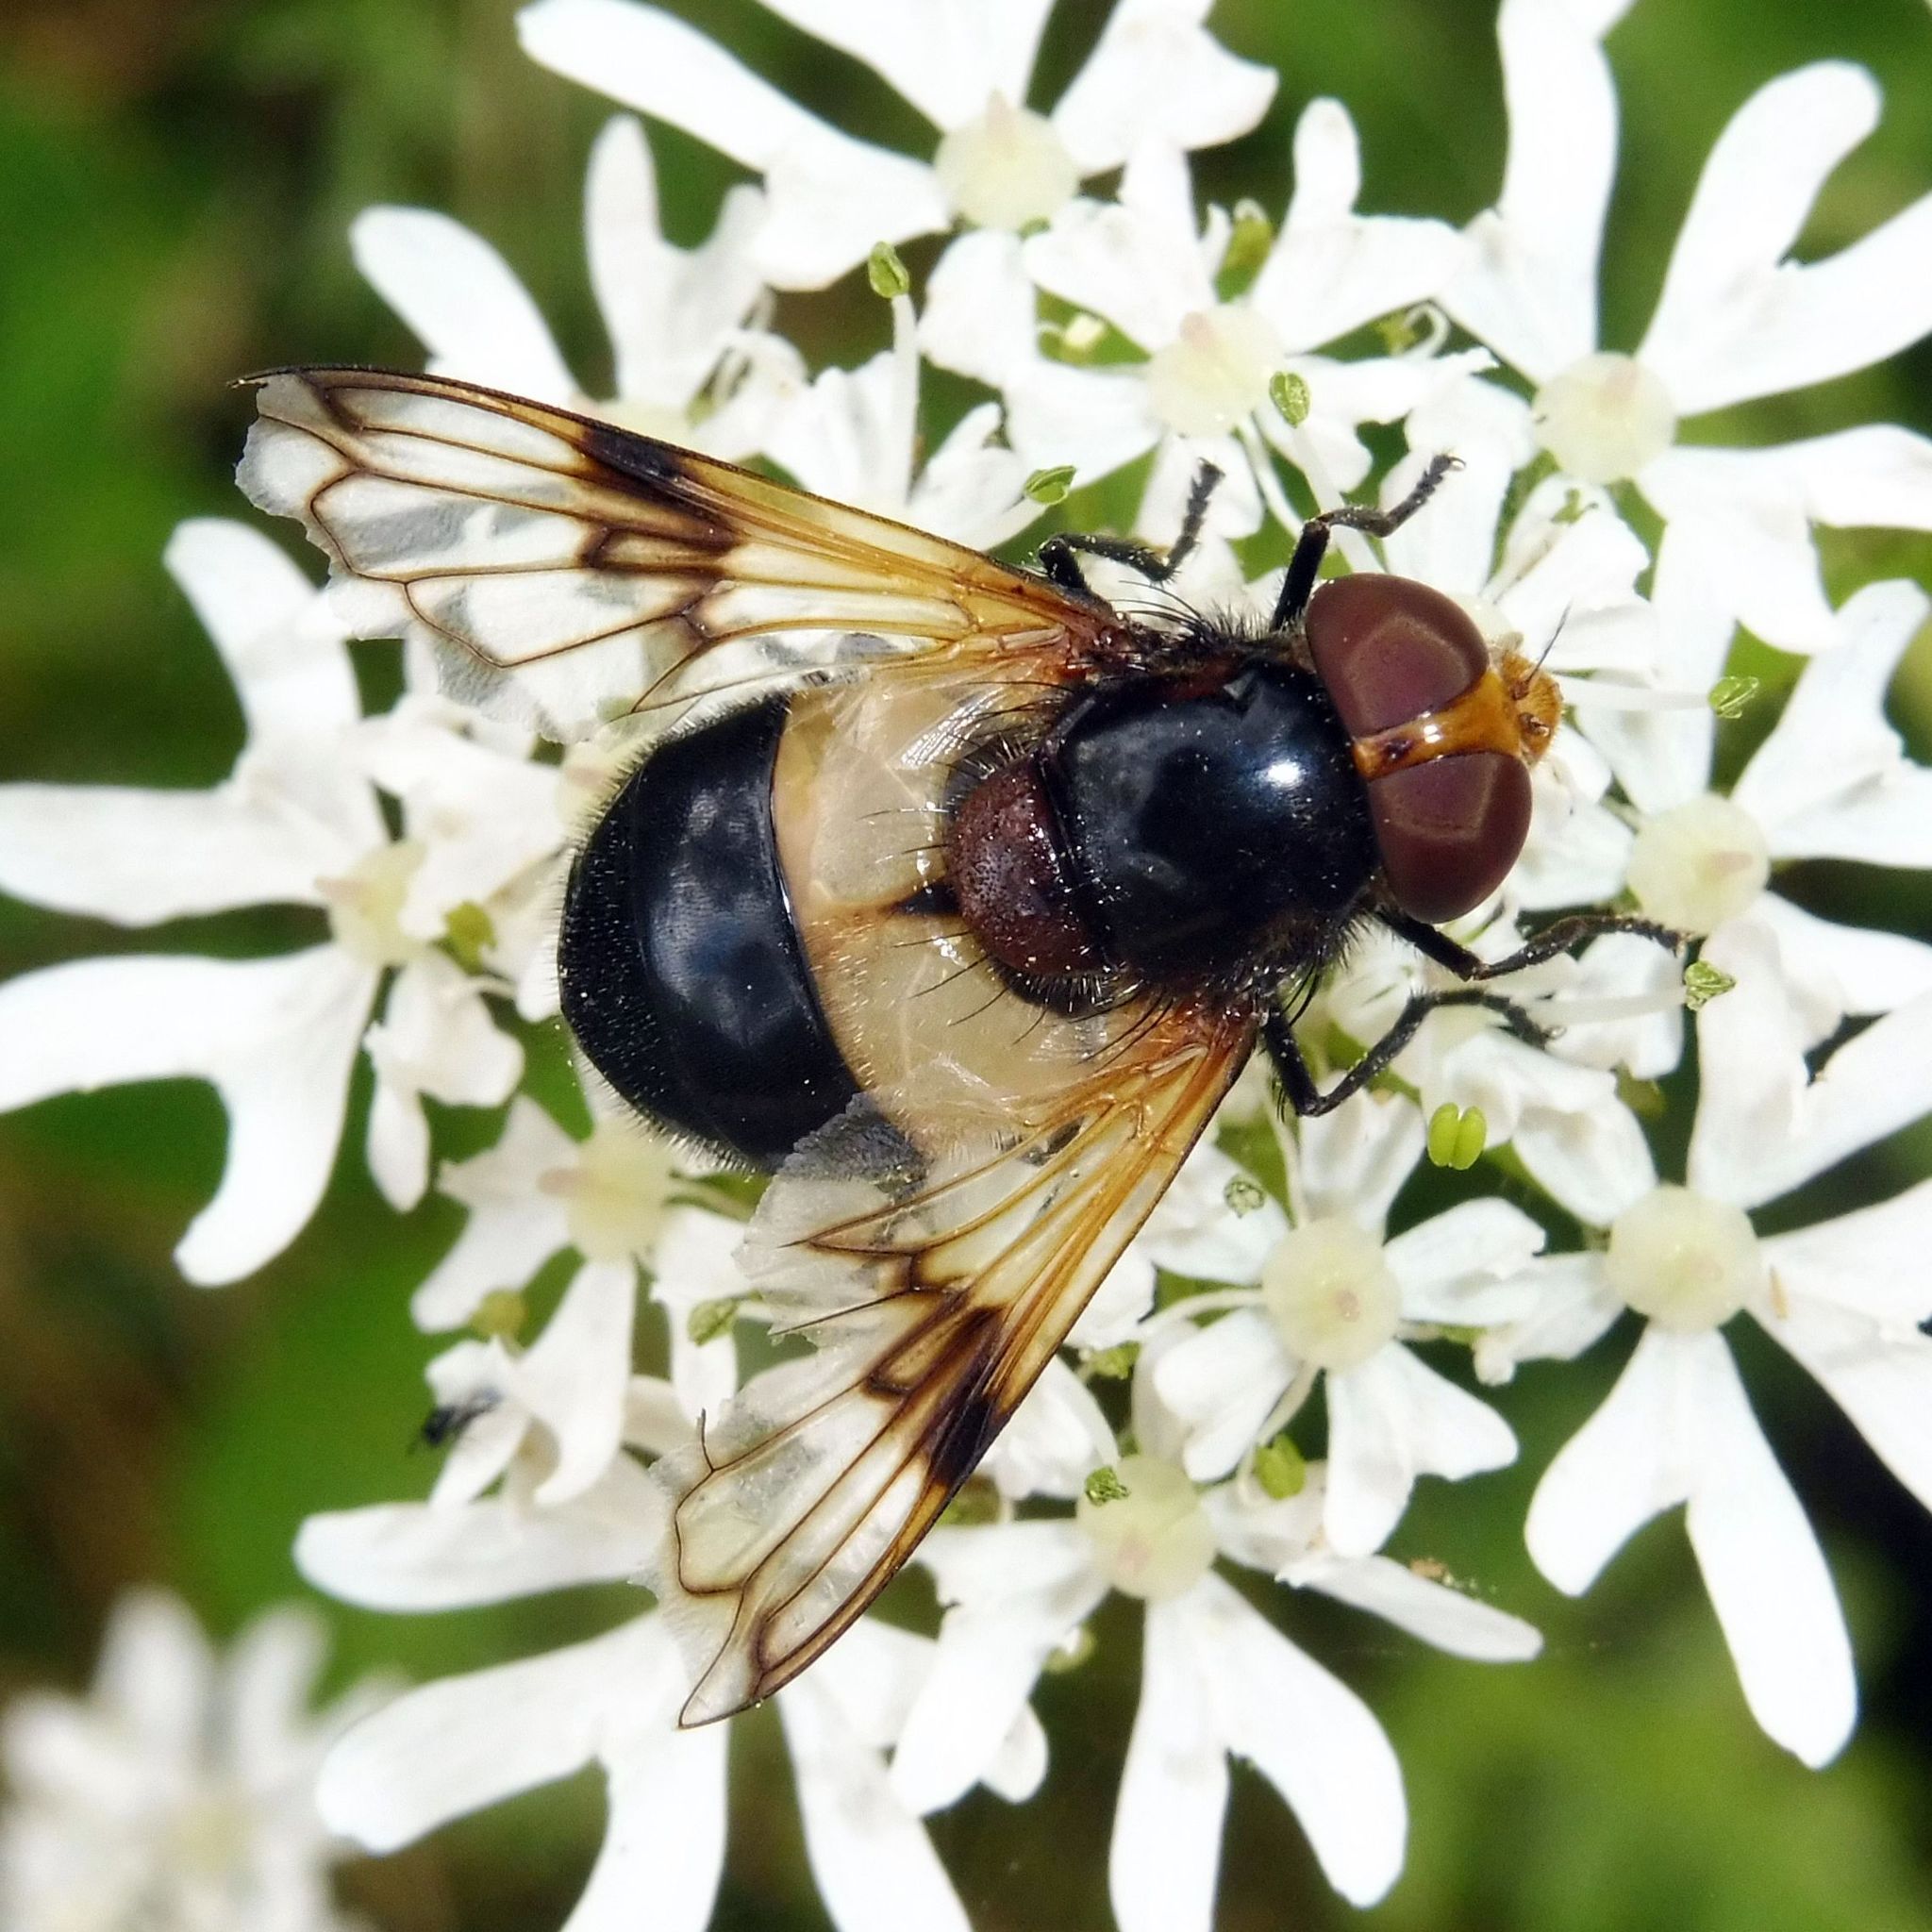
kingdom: Animalia
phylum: Arthropoda
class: Insecta
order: Diptera
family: Syrphidae
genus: Volucella
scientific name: Volucella pellucens
